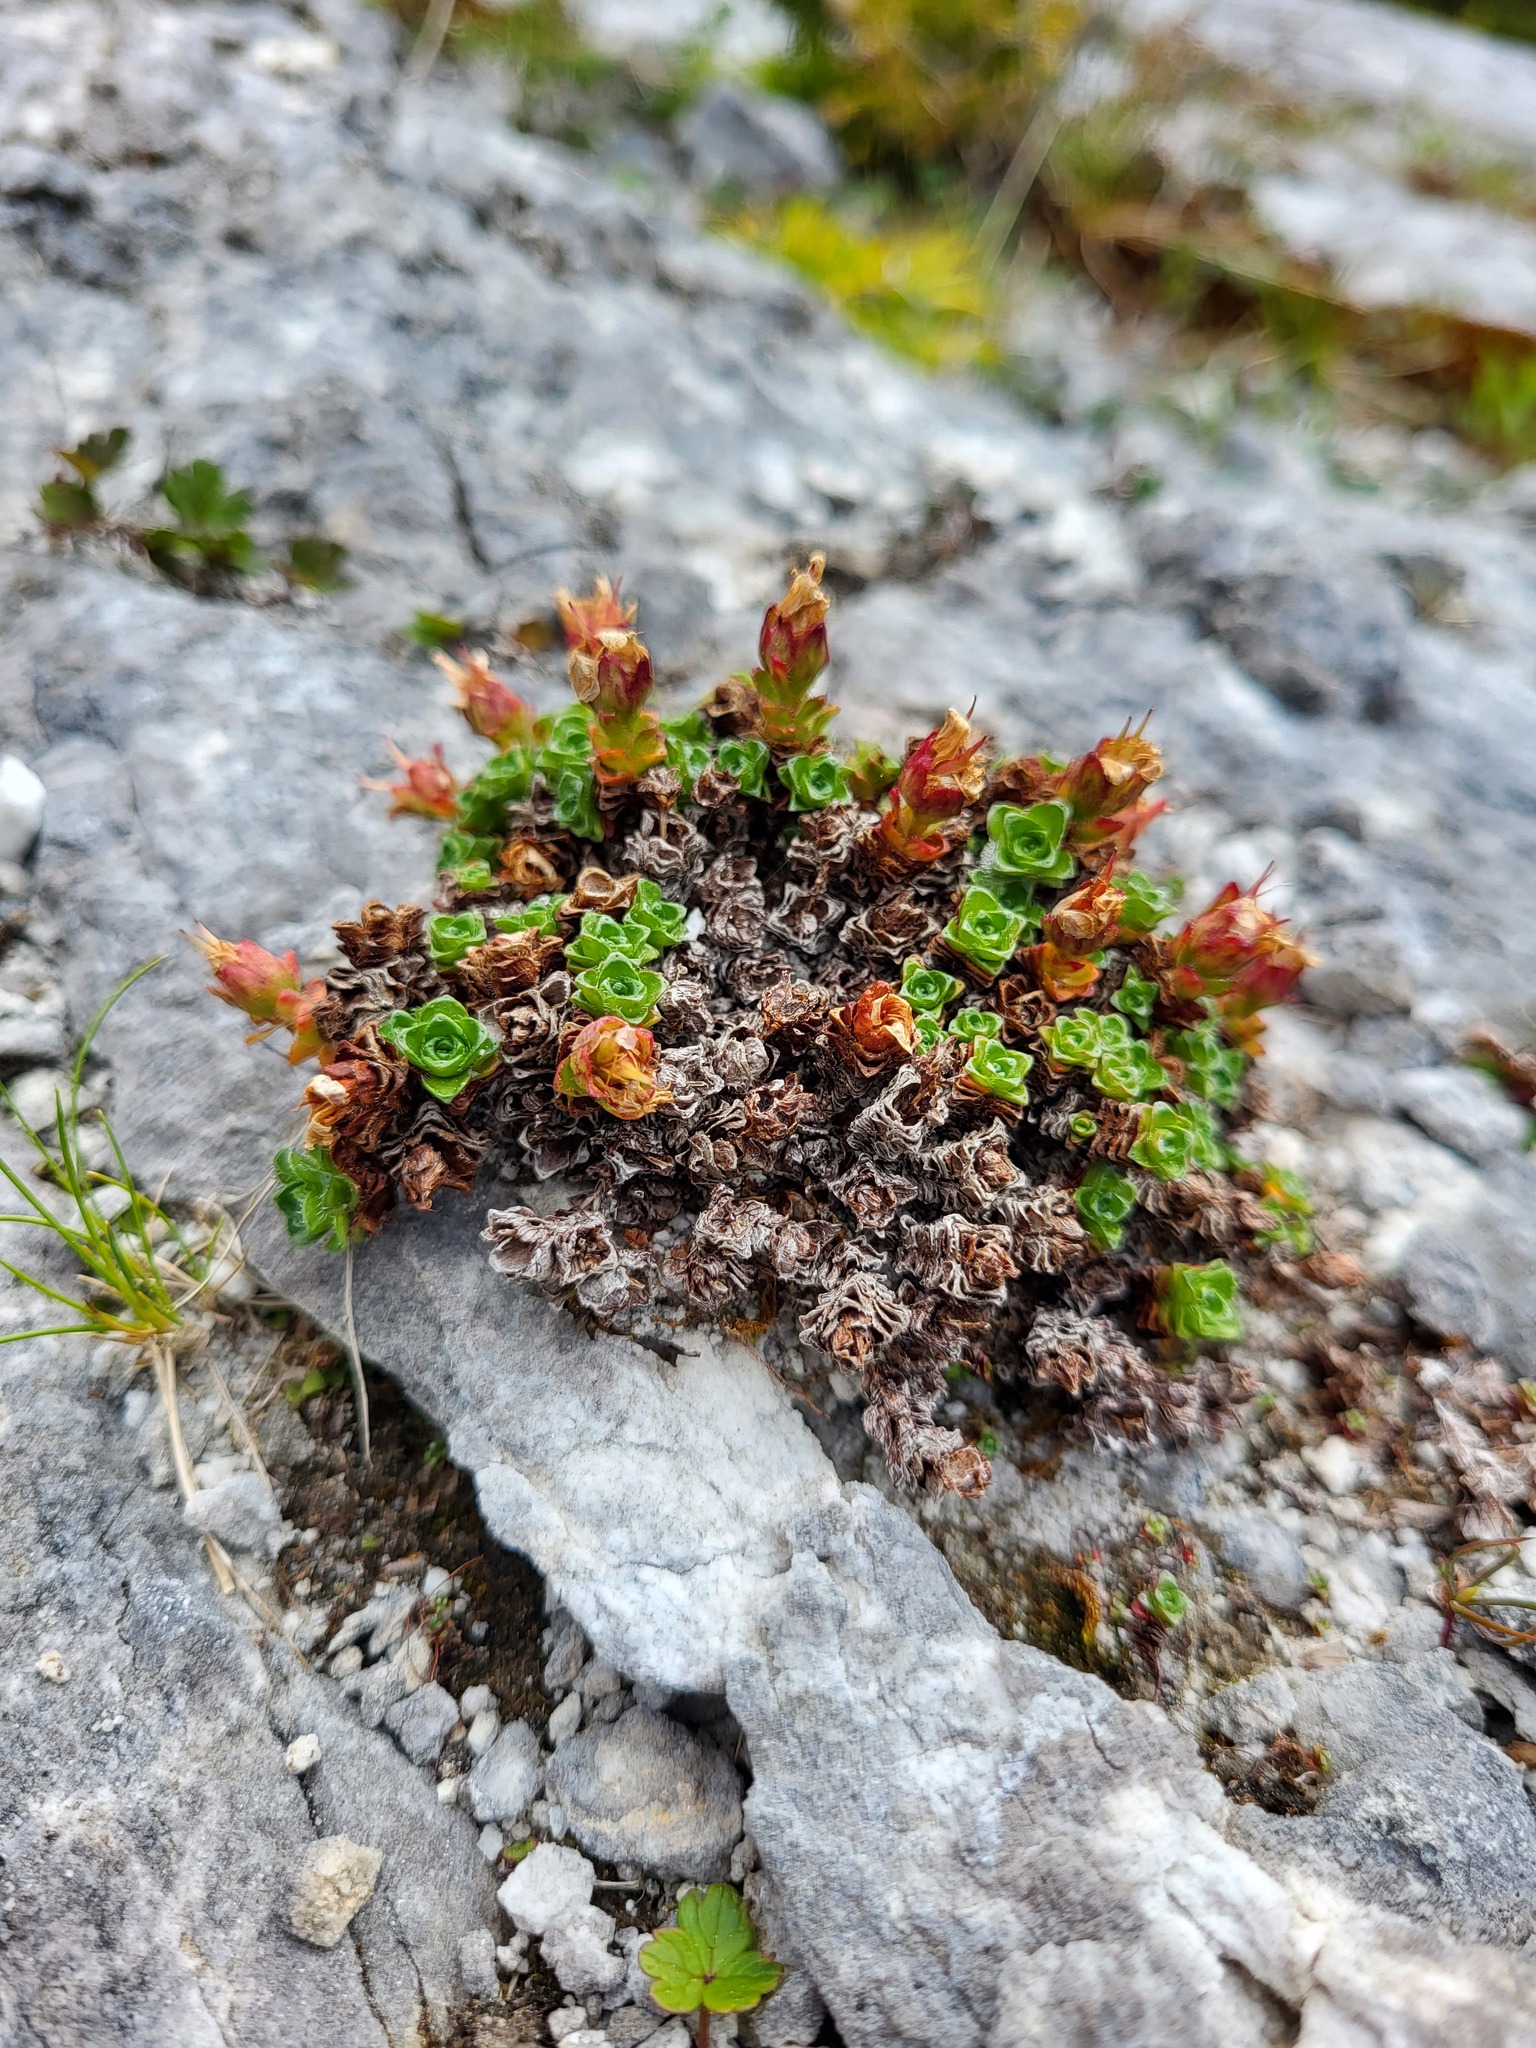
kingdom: Plantae
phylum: Tracheophyta
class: Magnoliopsida
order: Saxifragales
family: Saxifragaceae
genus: Saxifraga
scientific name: Saxifraga oppositifolia
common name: Purple saxifrage
